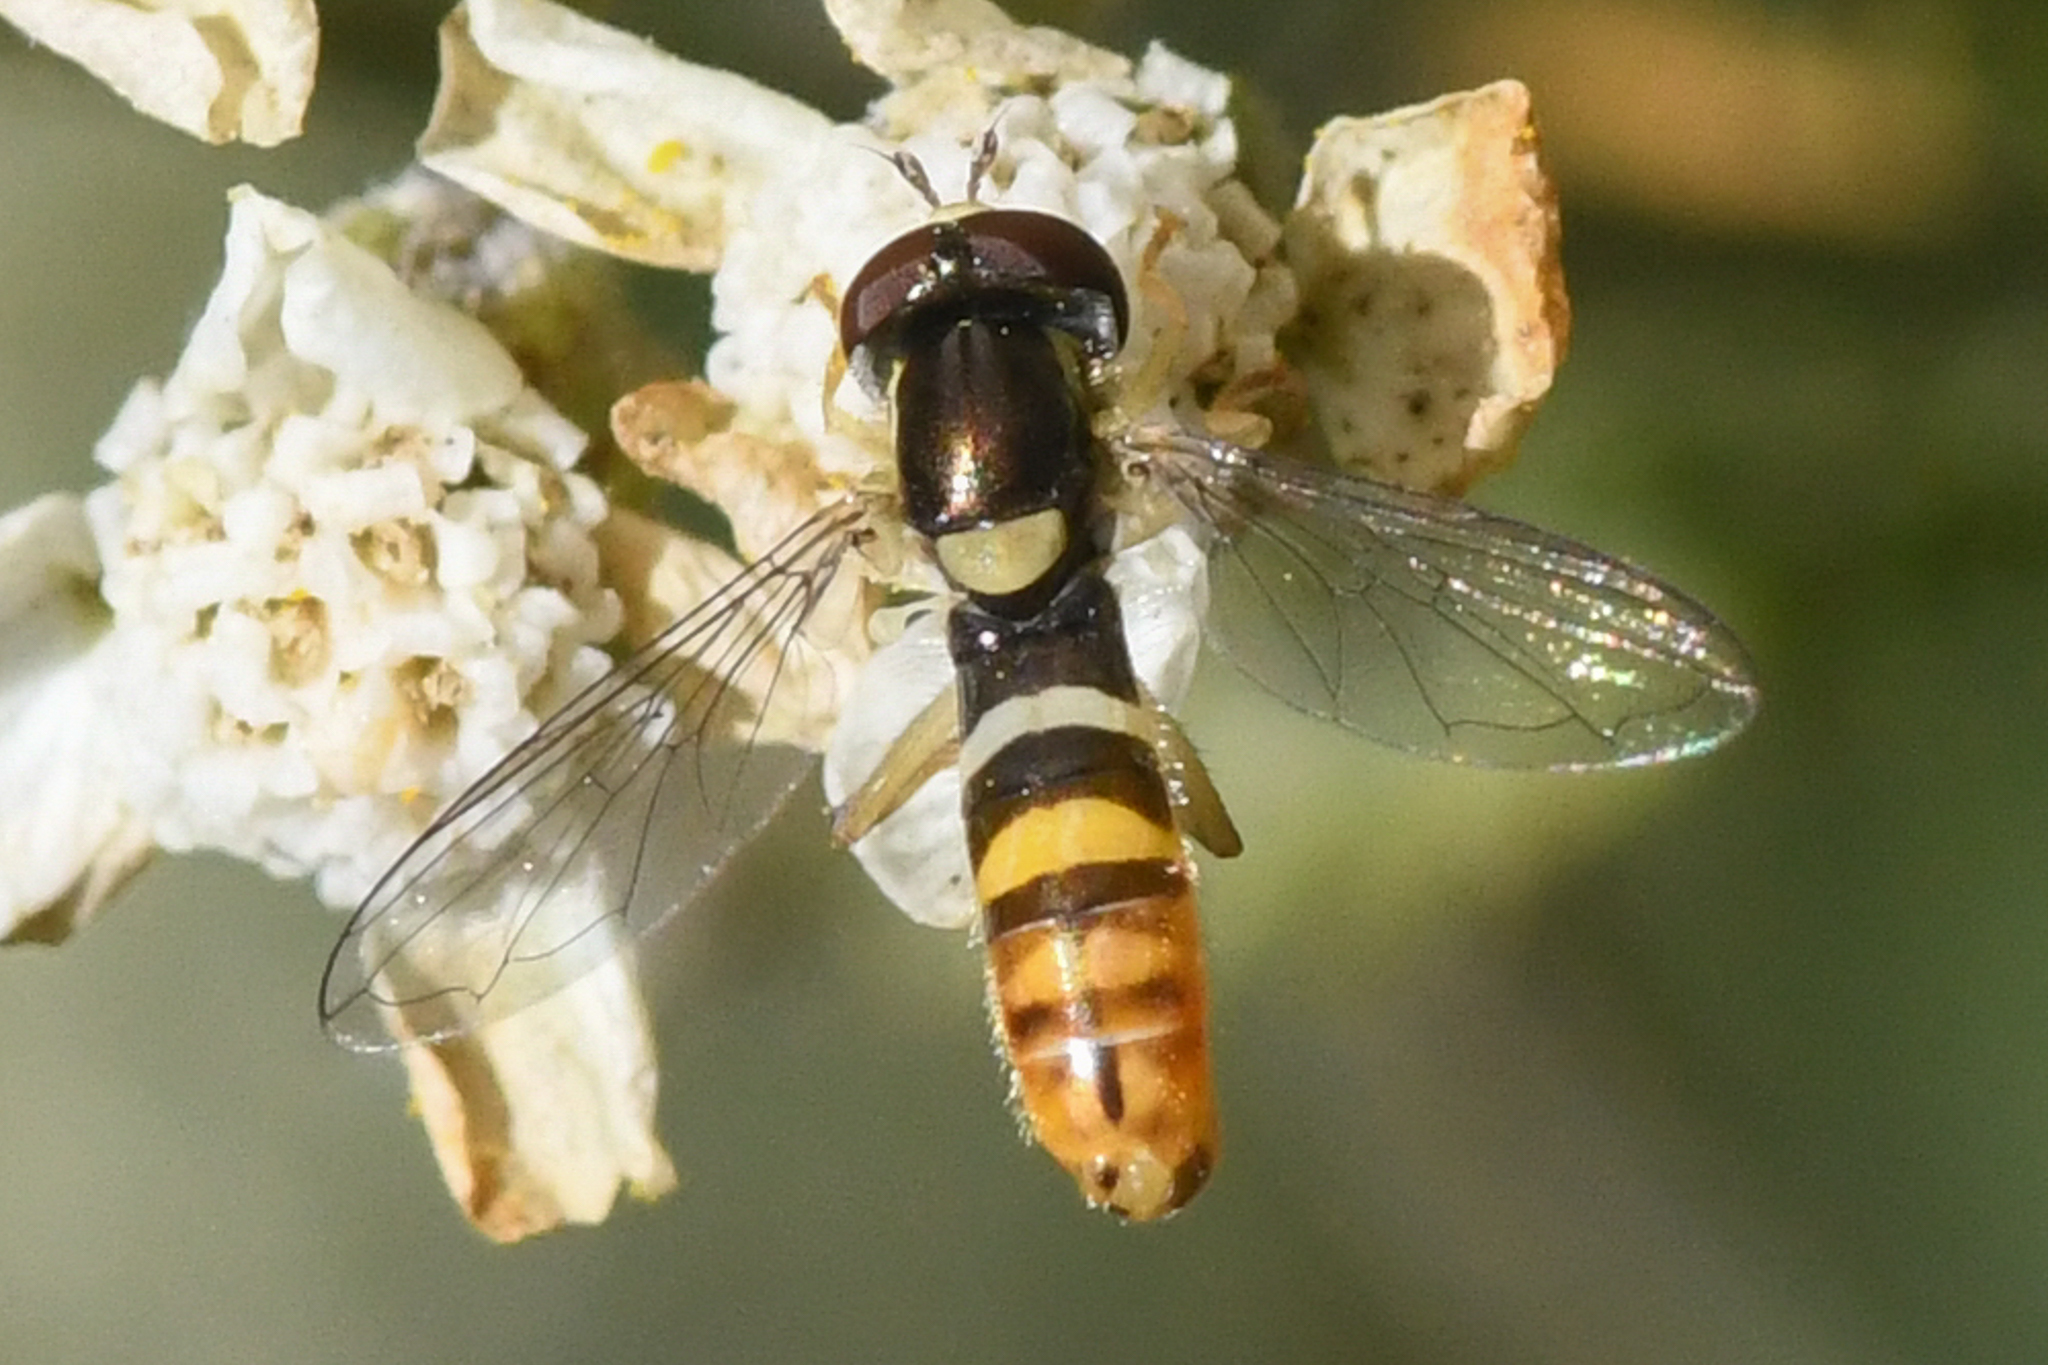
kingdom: Animalia
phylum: Arthropoda
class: Insecta
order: Diptera
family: Syrphidae
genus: Sphaerophoria
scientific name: Sphaerophoria sulphuripes
